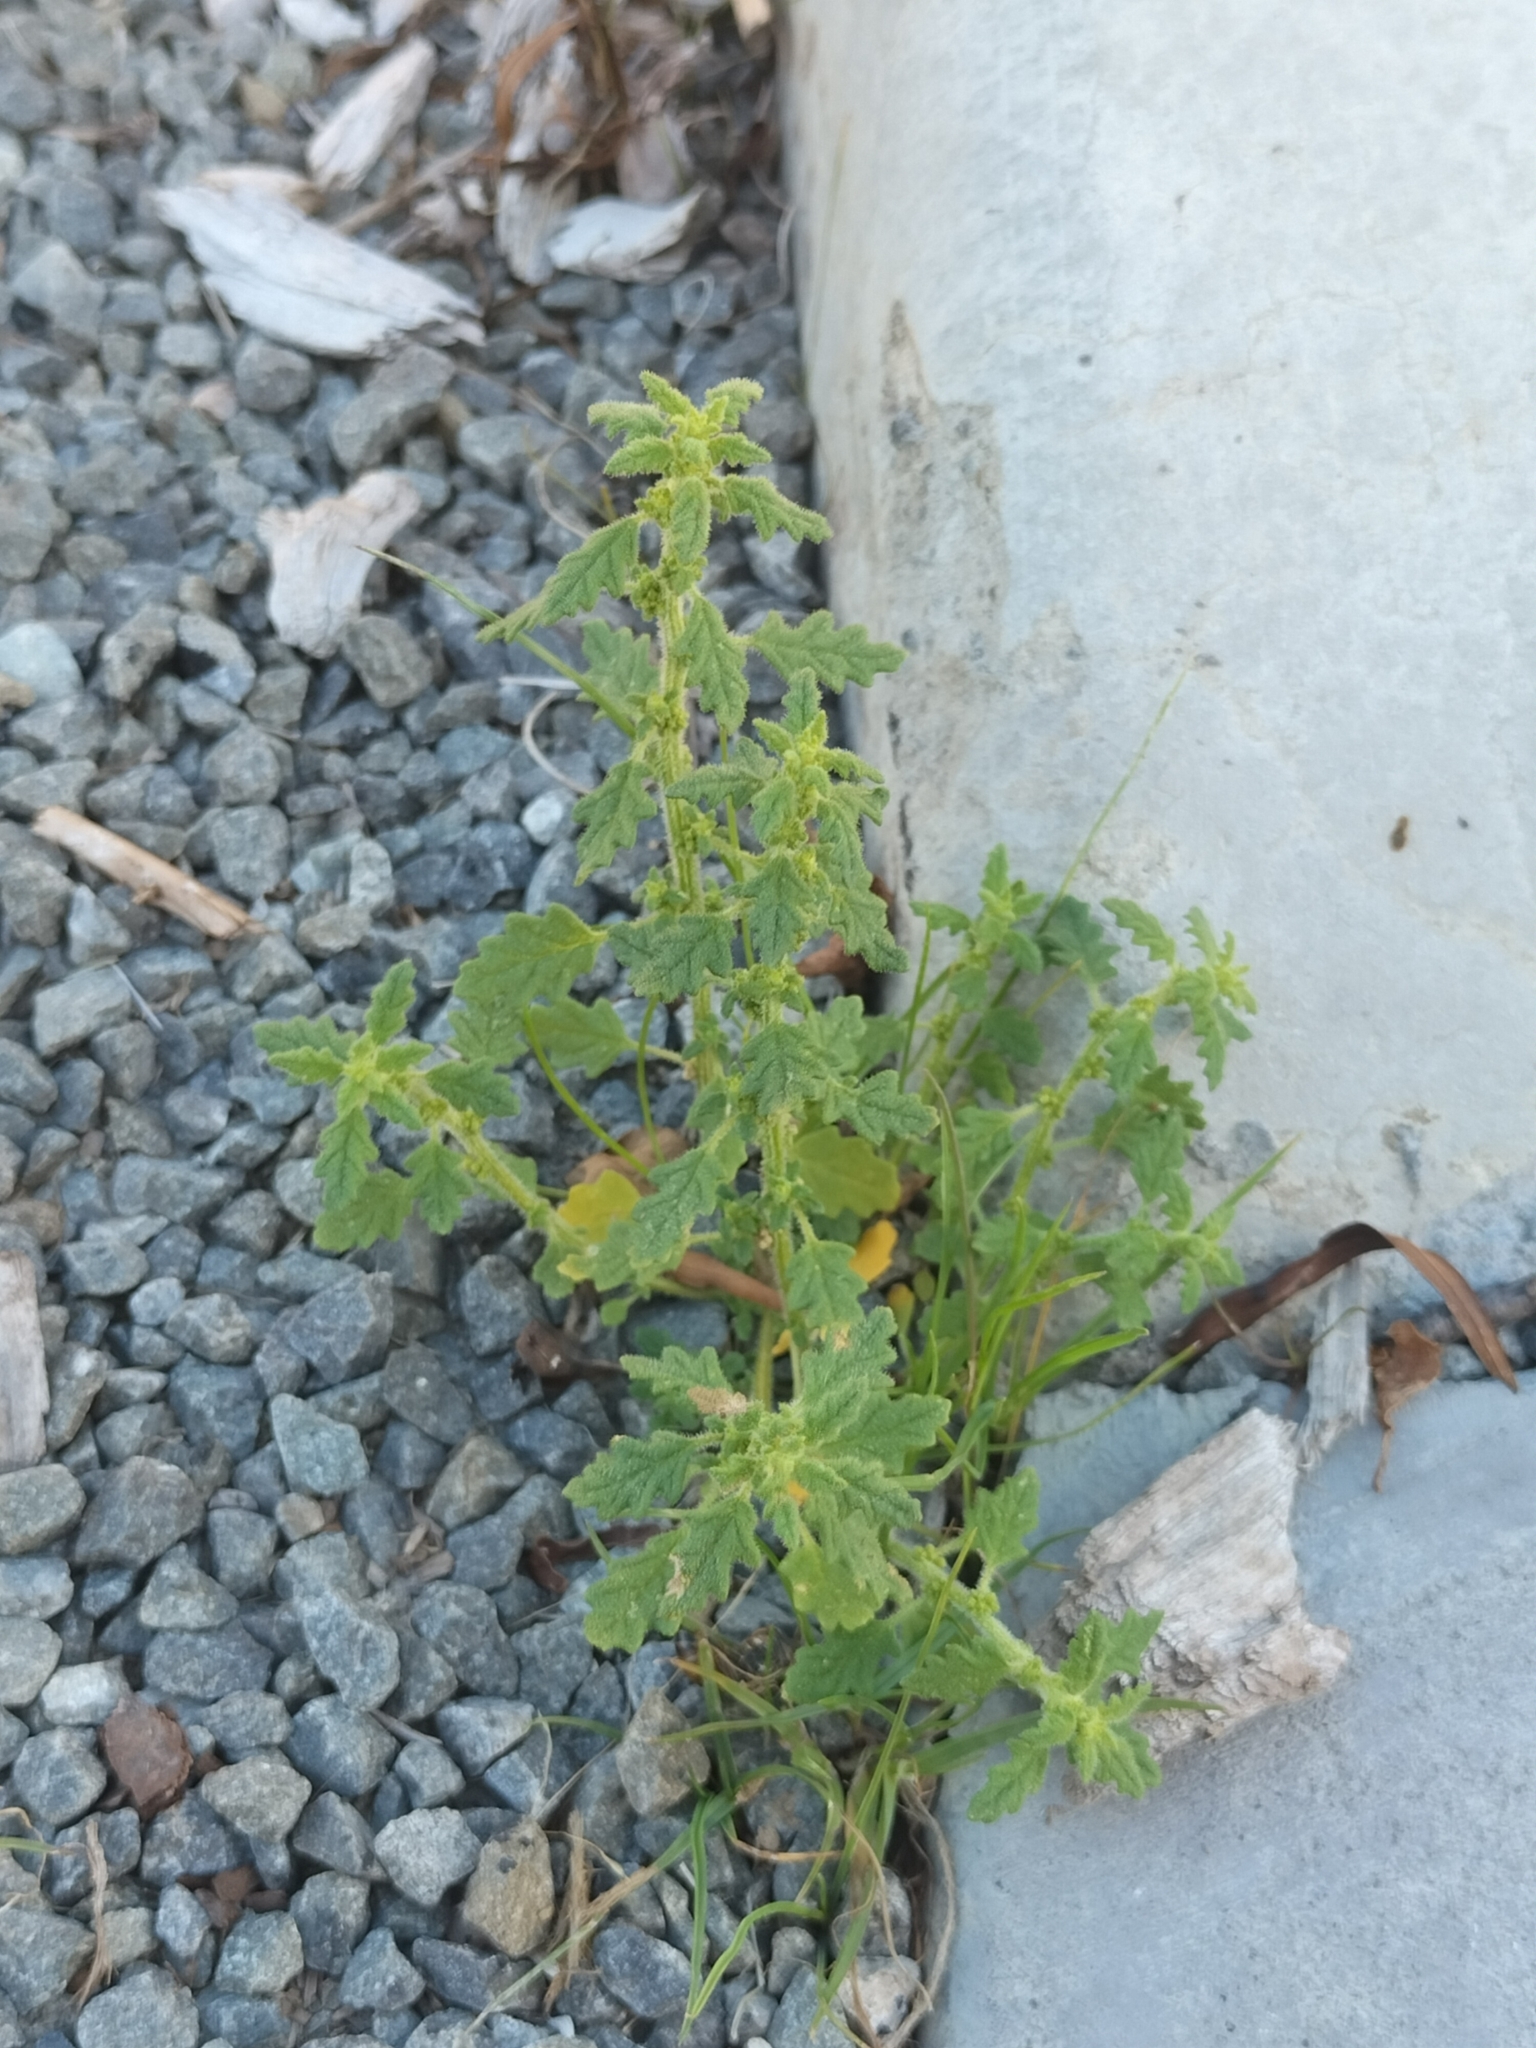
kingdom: Plantae
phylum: Tracheophyta
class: Magnoliopsida
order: Caryophyllales
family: Amaranthaceae
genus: Dysphania
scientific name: Dysphania pumilio
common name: Clammy goosefoot
